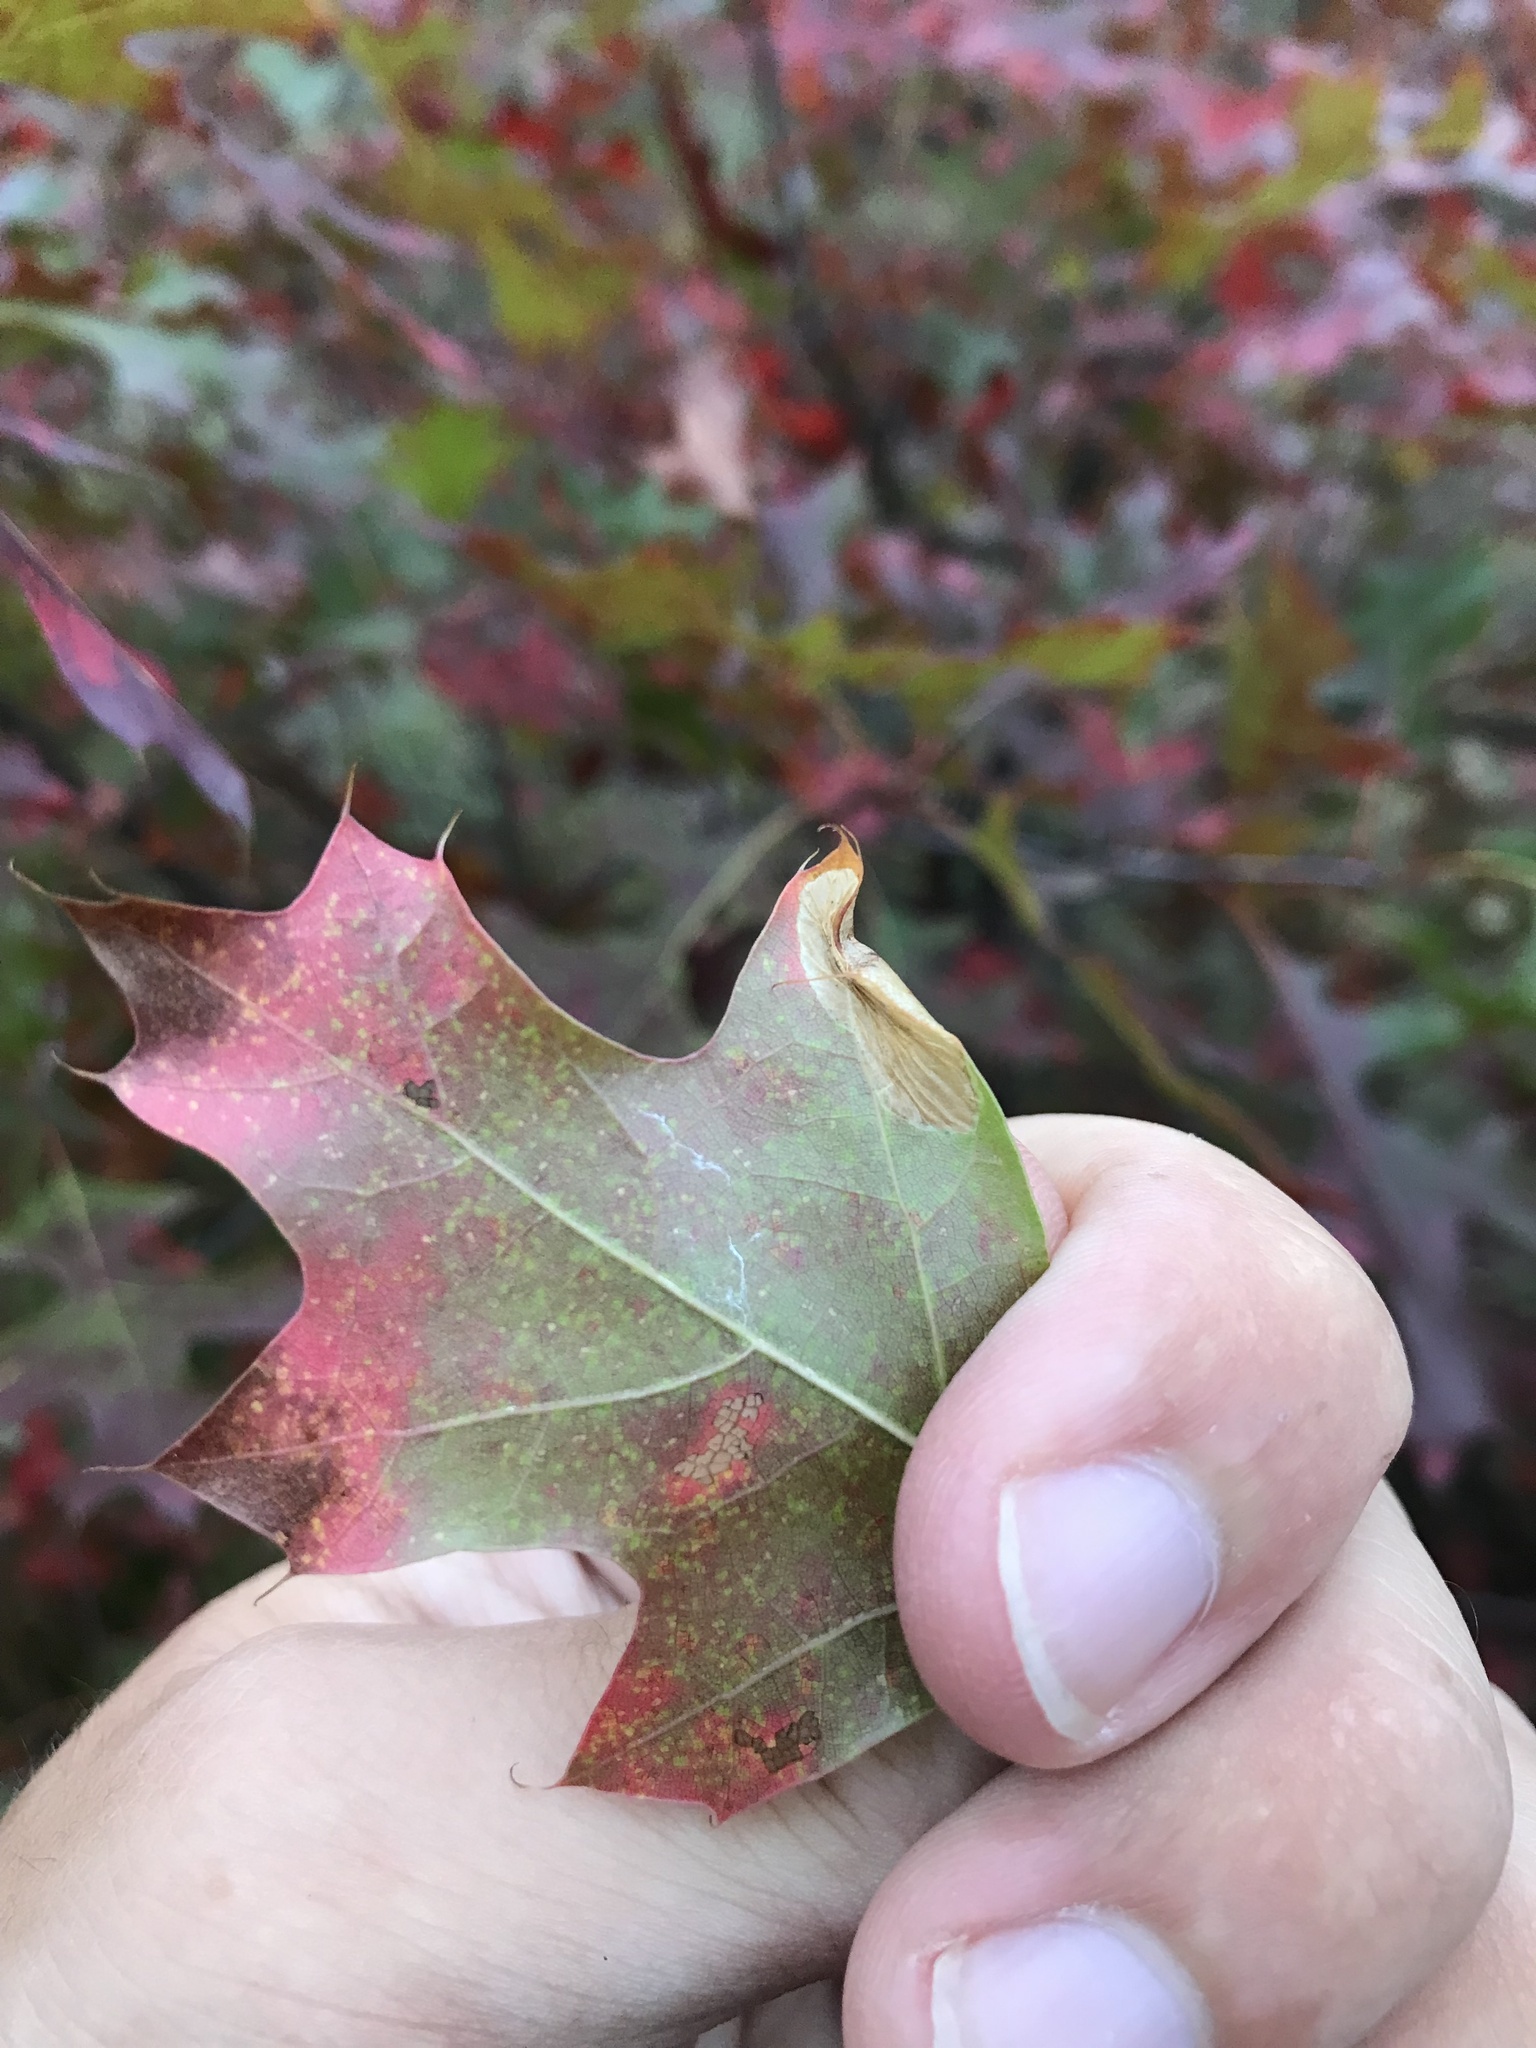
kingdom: Animalia
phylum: Arthropoda
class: Insecta
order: Lepidoptera
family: Gracillariidae
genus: Phyllonorycter
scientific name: Phyllonorycter quercialbella
